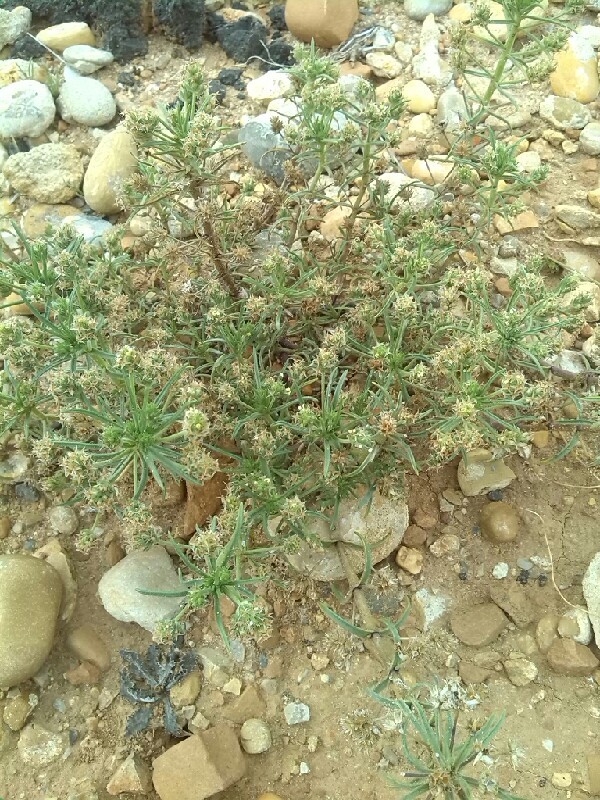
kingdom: Plantae
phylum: Tracheophyta
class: Magnoliopsida
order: Lamiales
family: Plantaginaceae
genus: Plantago
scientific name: Plantago arenaria
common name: Branched plantain
